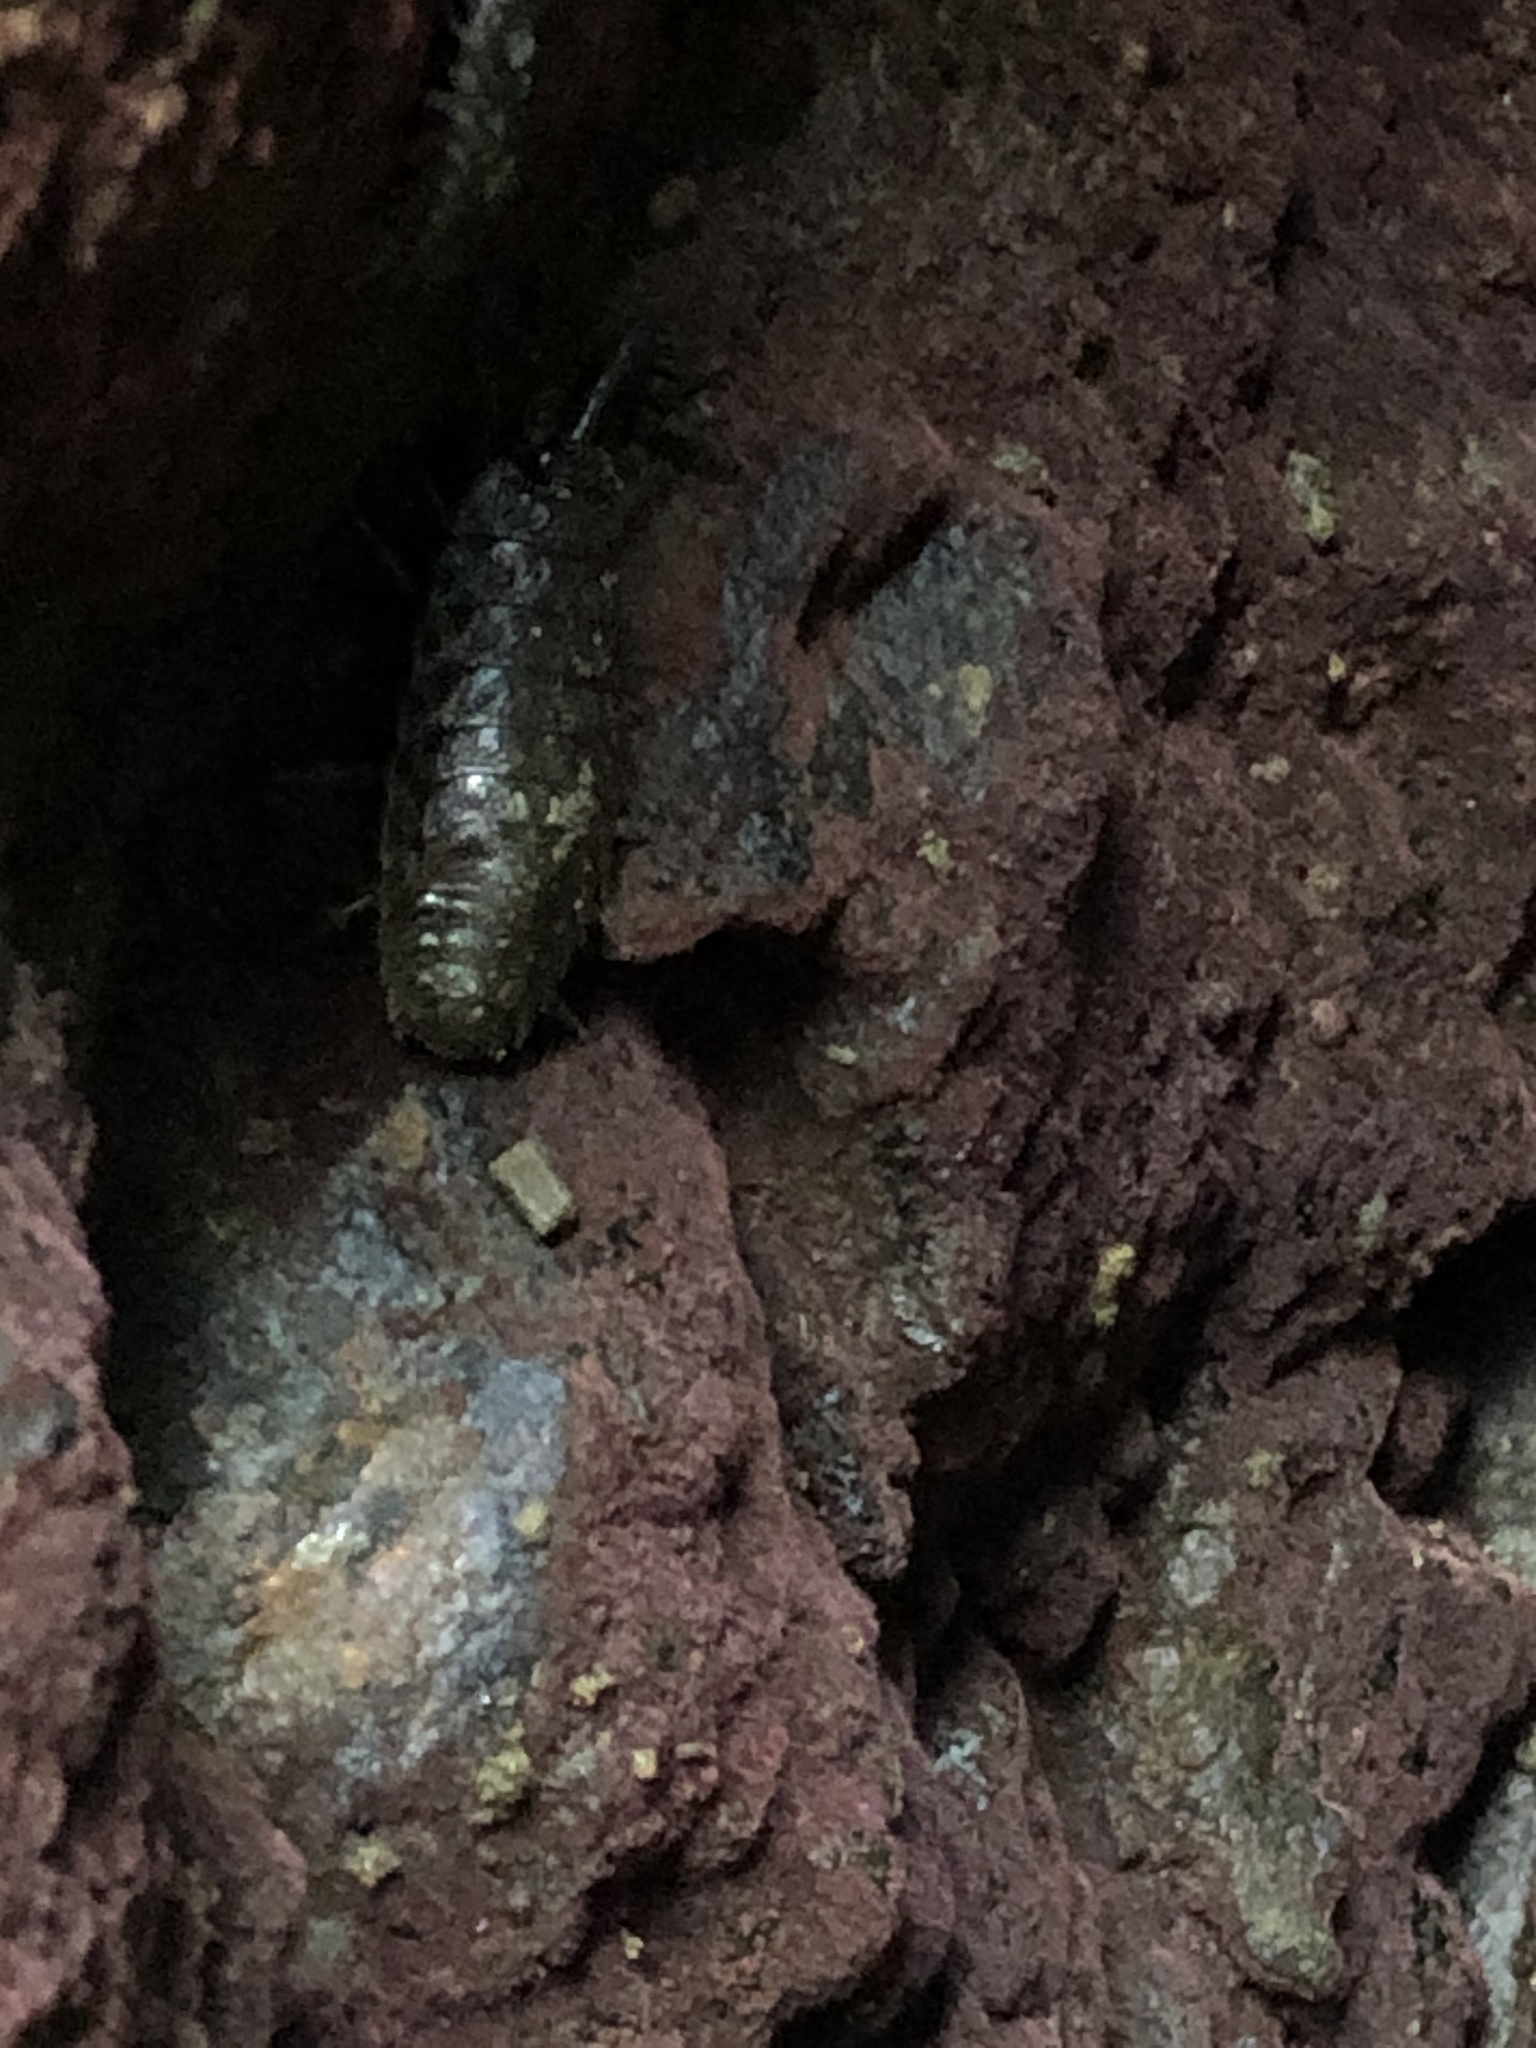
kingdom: Animalia
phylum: Arthropoda
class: Malacostraca
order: Isopoda
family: Ligiidae
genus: Ligia
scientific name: Ligia pallasii
